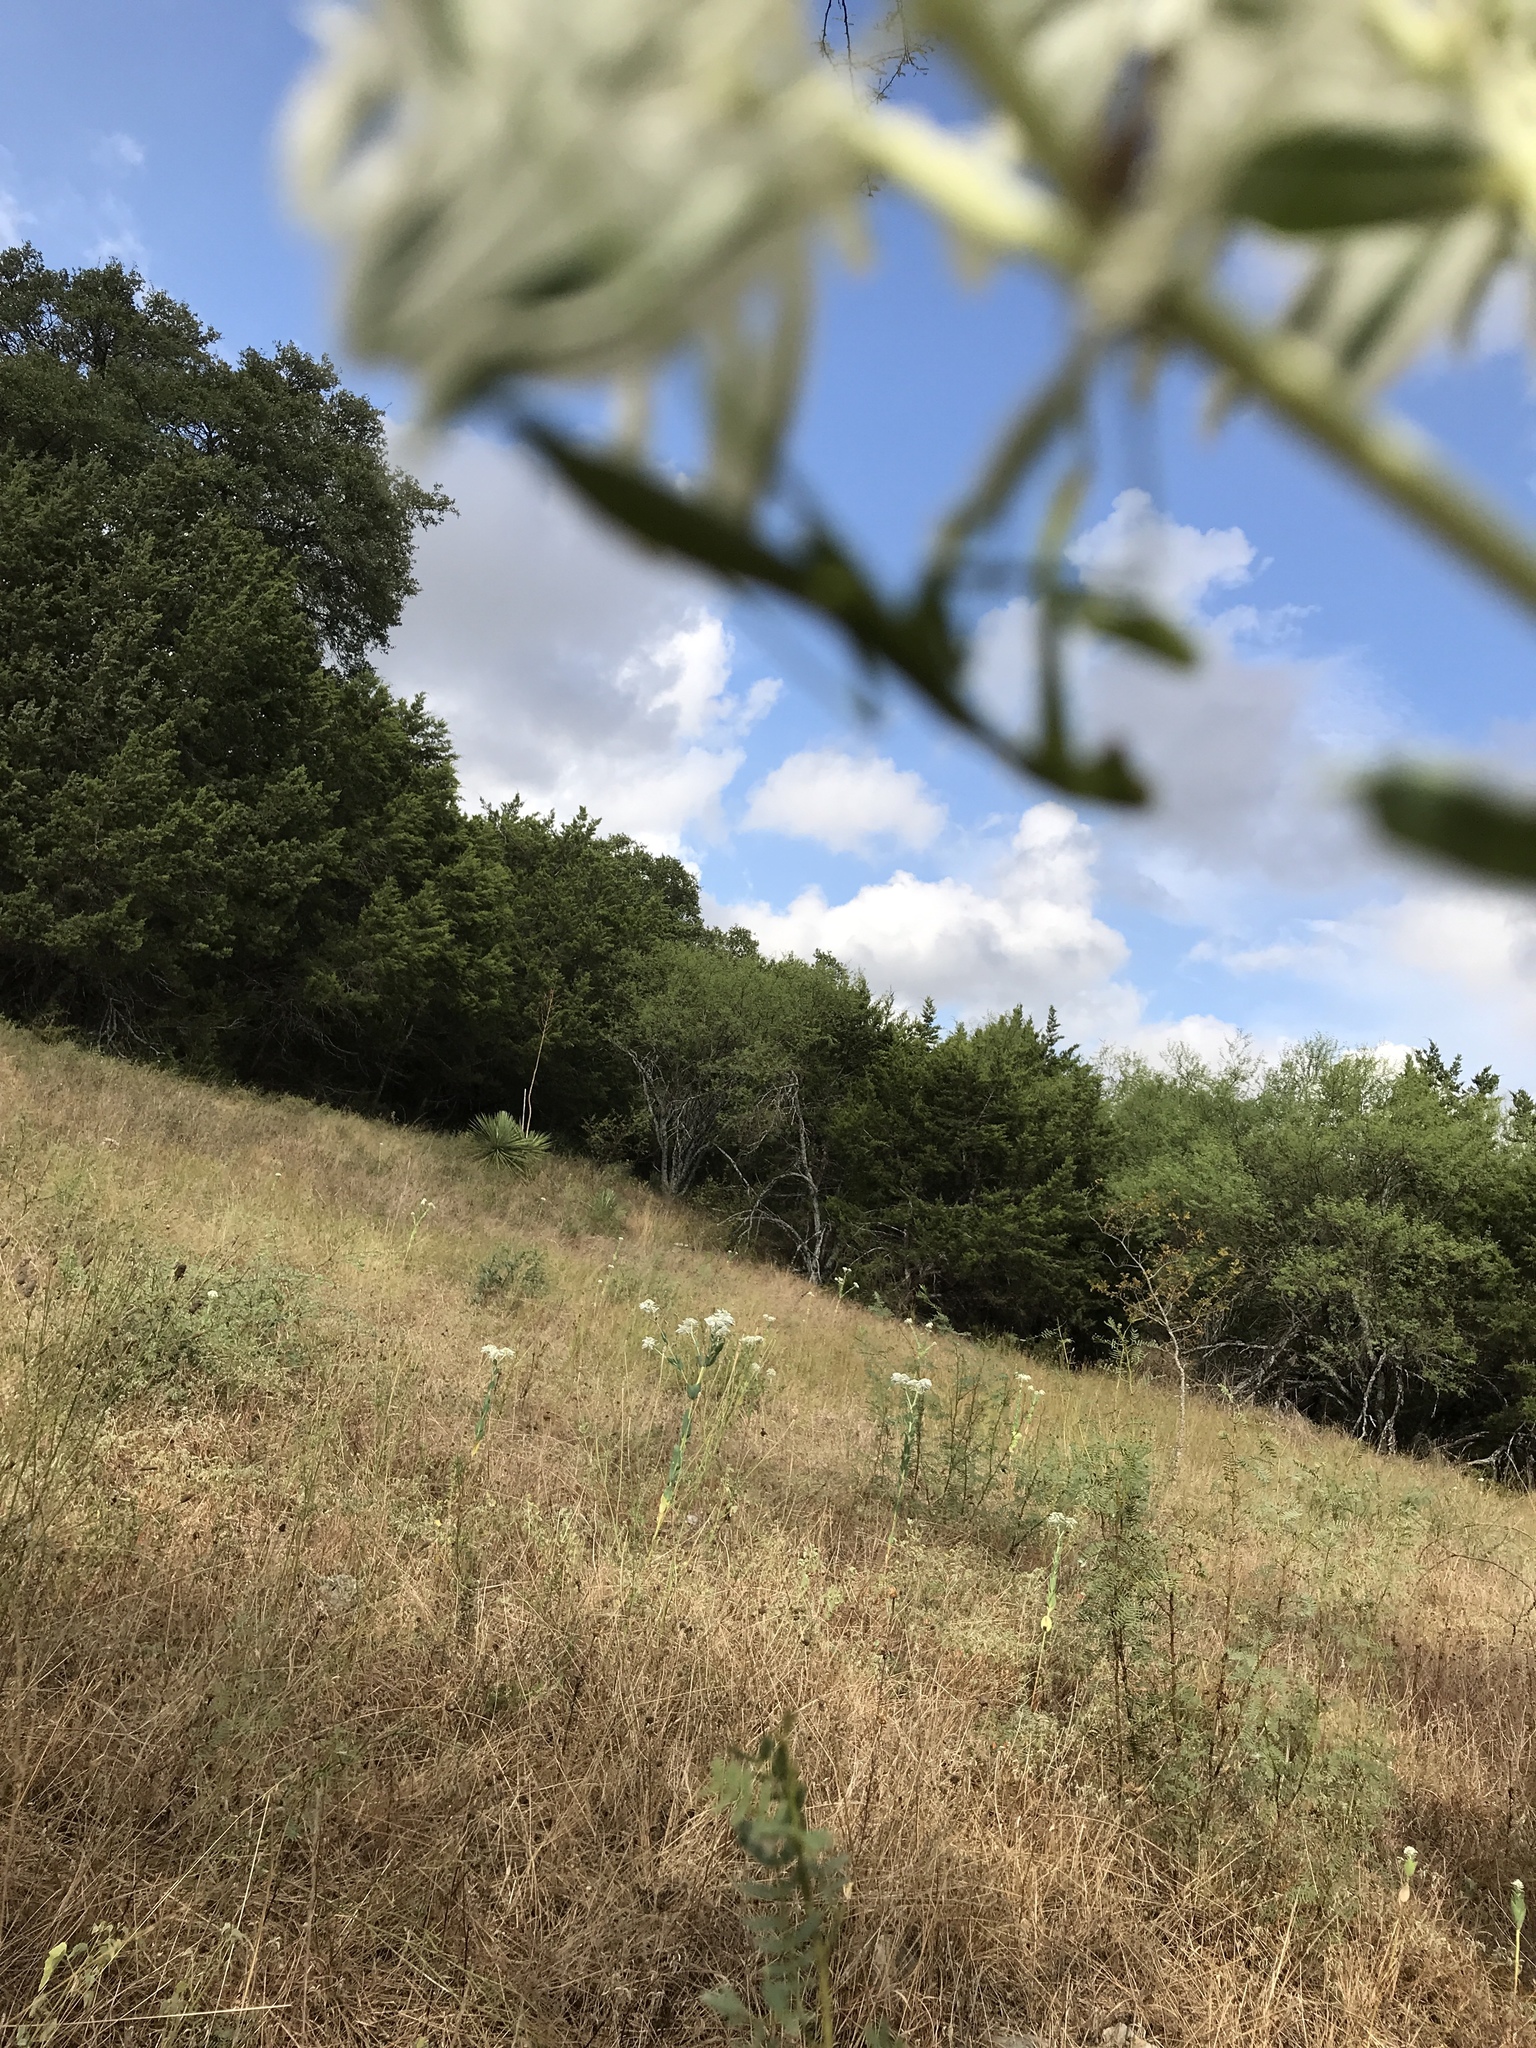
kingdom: Animalia
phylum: Arthropoda
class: Insecta
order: Mantodea
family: Mantidae
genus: Stagmomantis
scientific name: Stagmomantis limbata
